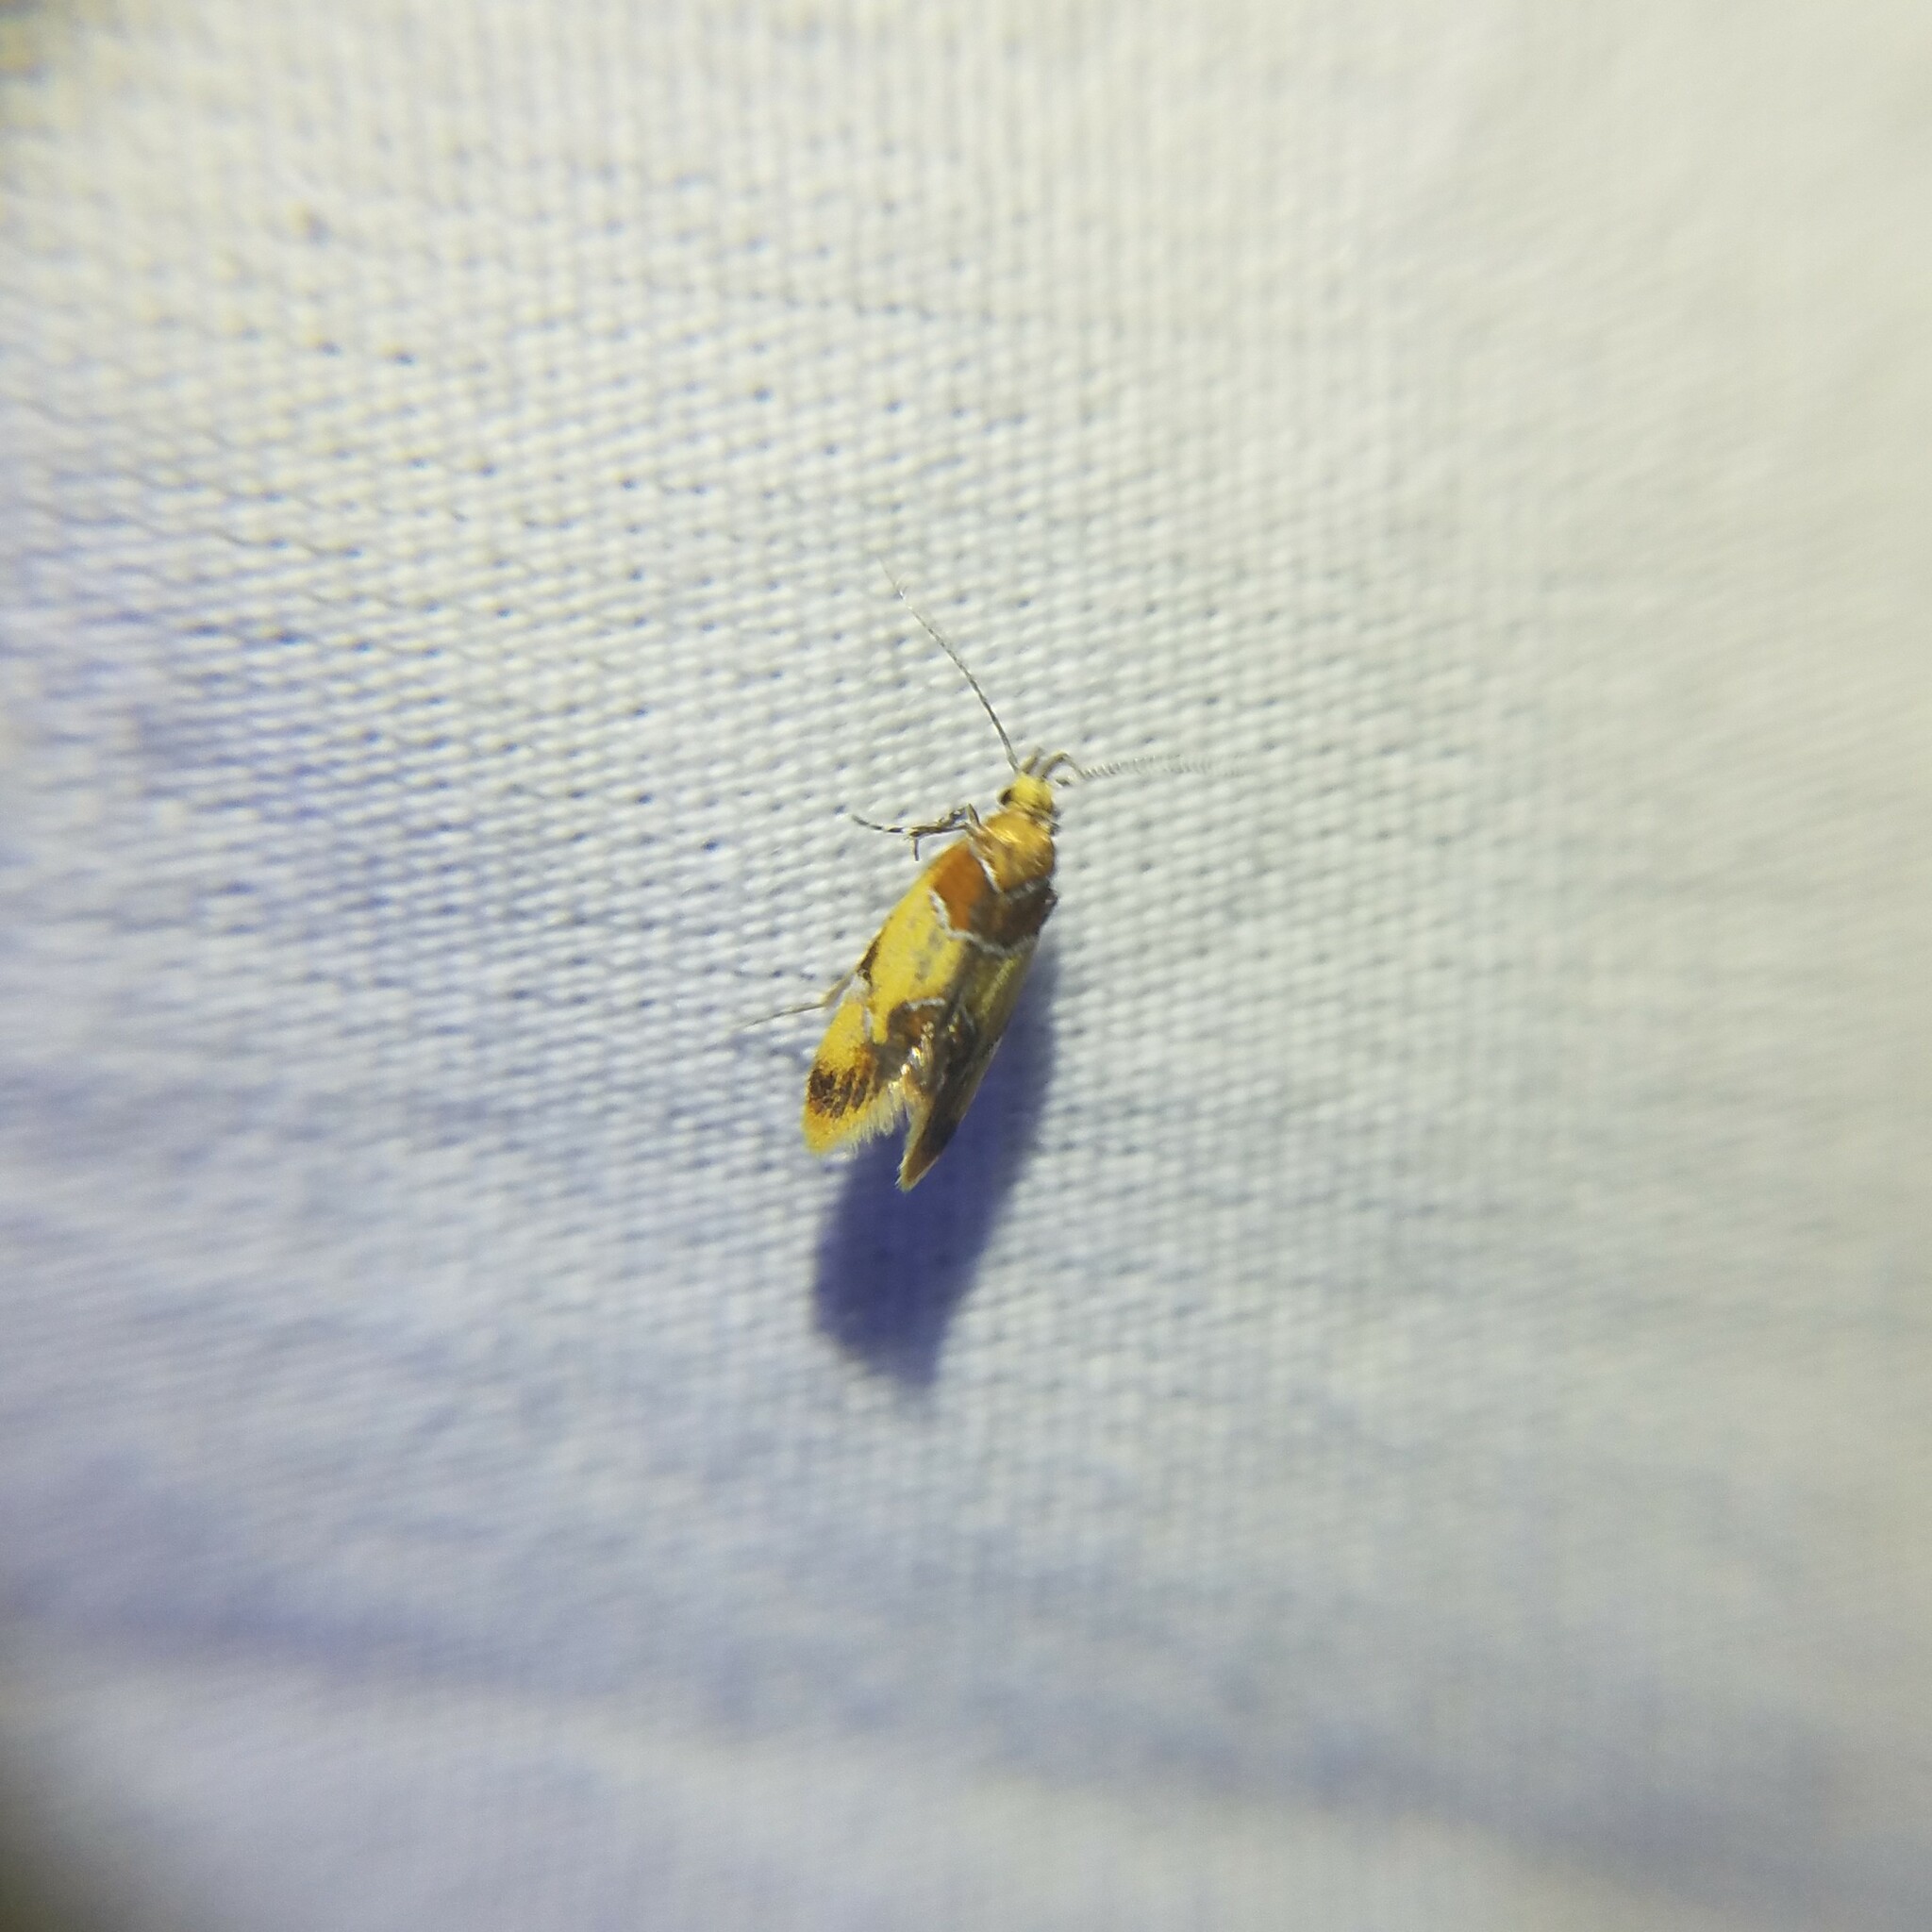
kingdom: Animalia
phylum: Arthropoda
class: Insecta
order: Lepidoptera
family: Oecophoridae
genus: Callima
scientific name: Callima argenticinctella
